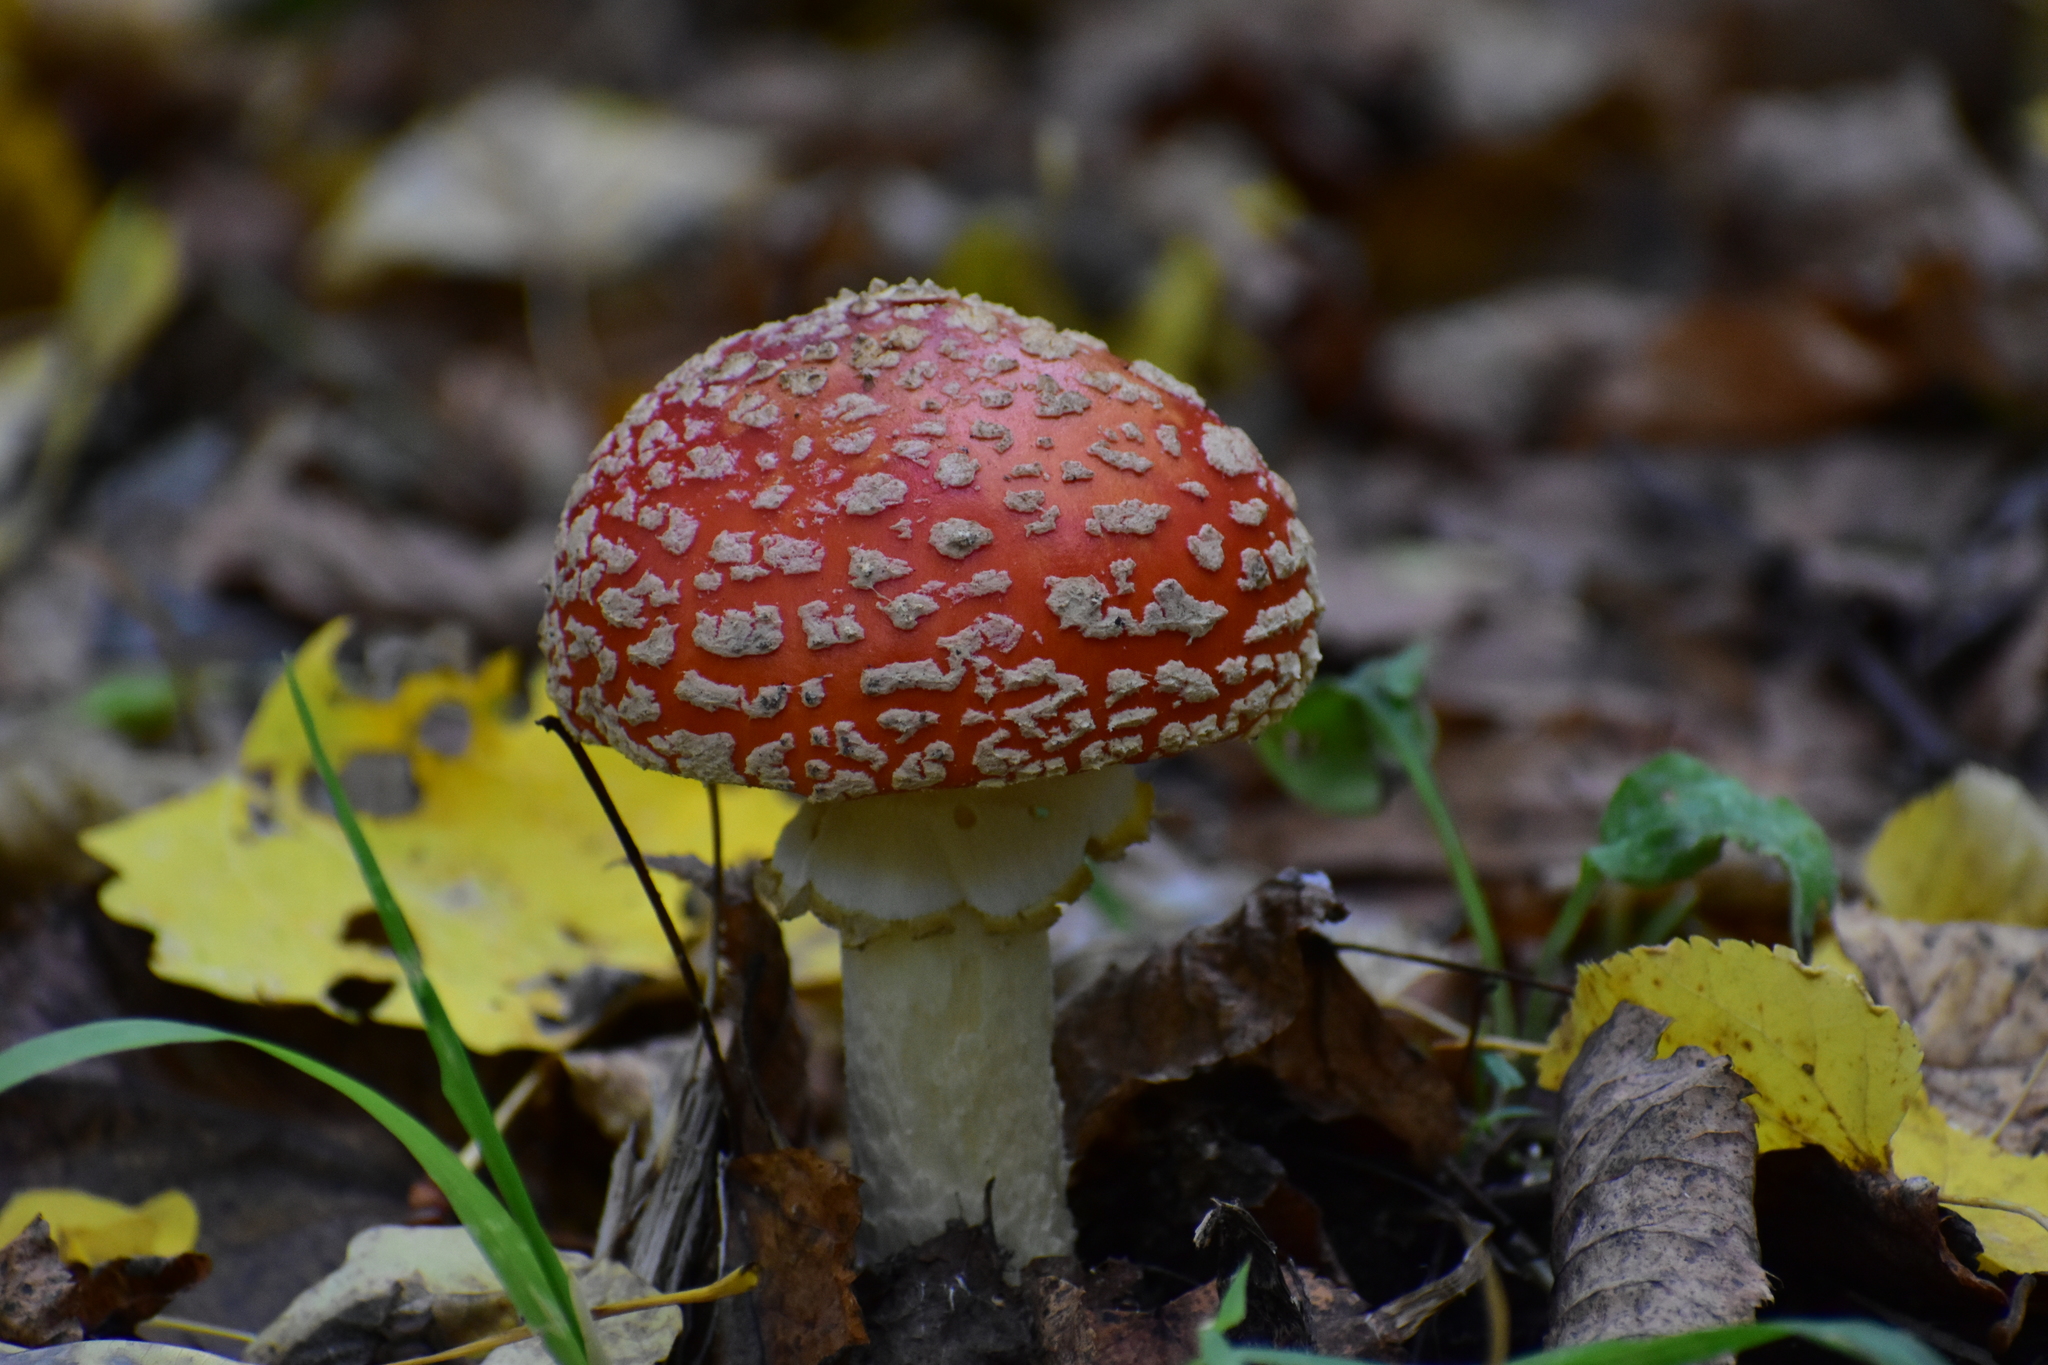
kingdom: Fungi
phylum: Basidiomycota
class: Agaricomycetes
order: Agaricales
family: Amanitaceae
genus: Amanita
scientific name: Amanita muscaria
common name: Fly agaric
